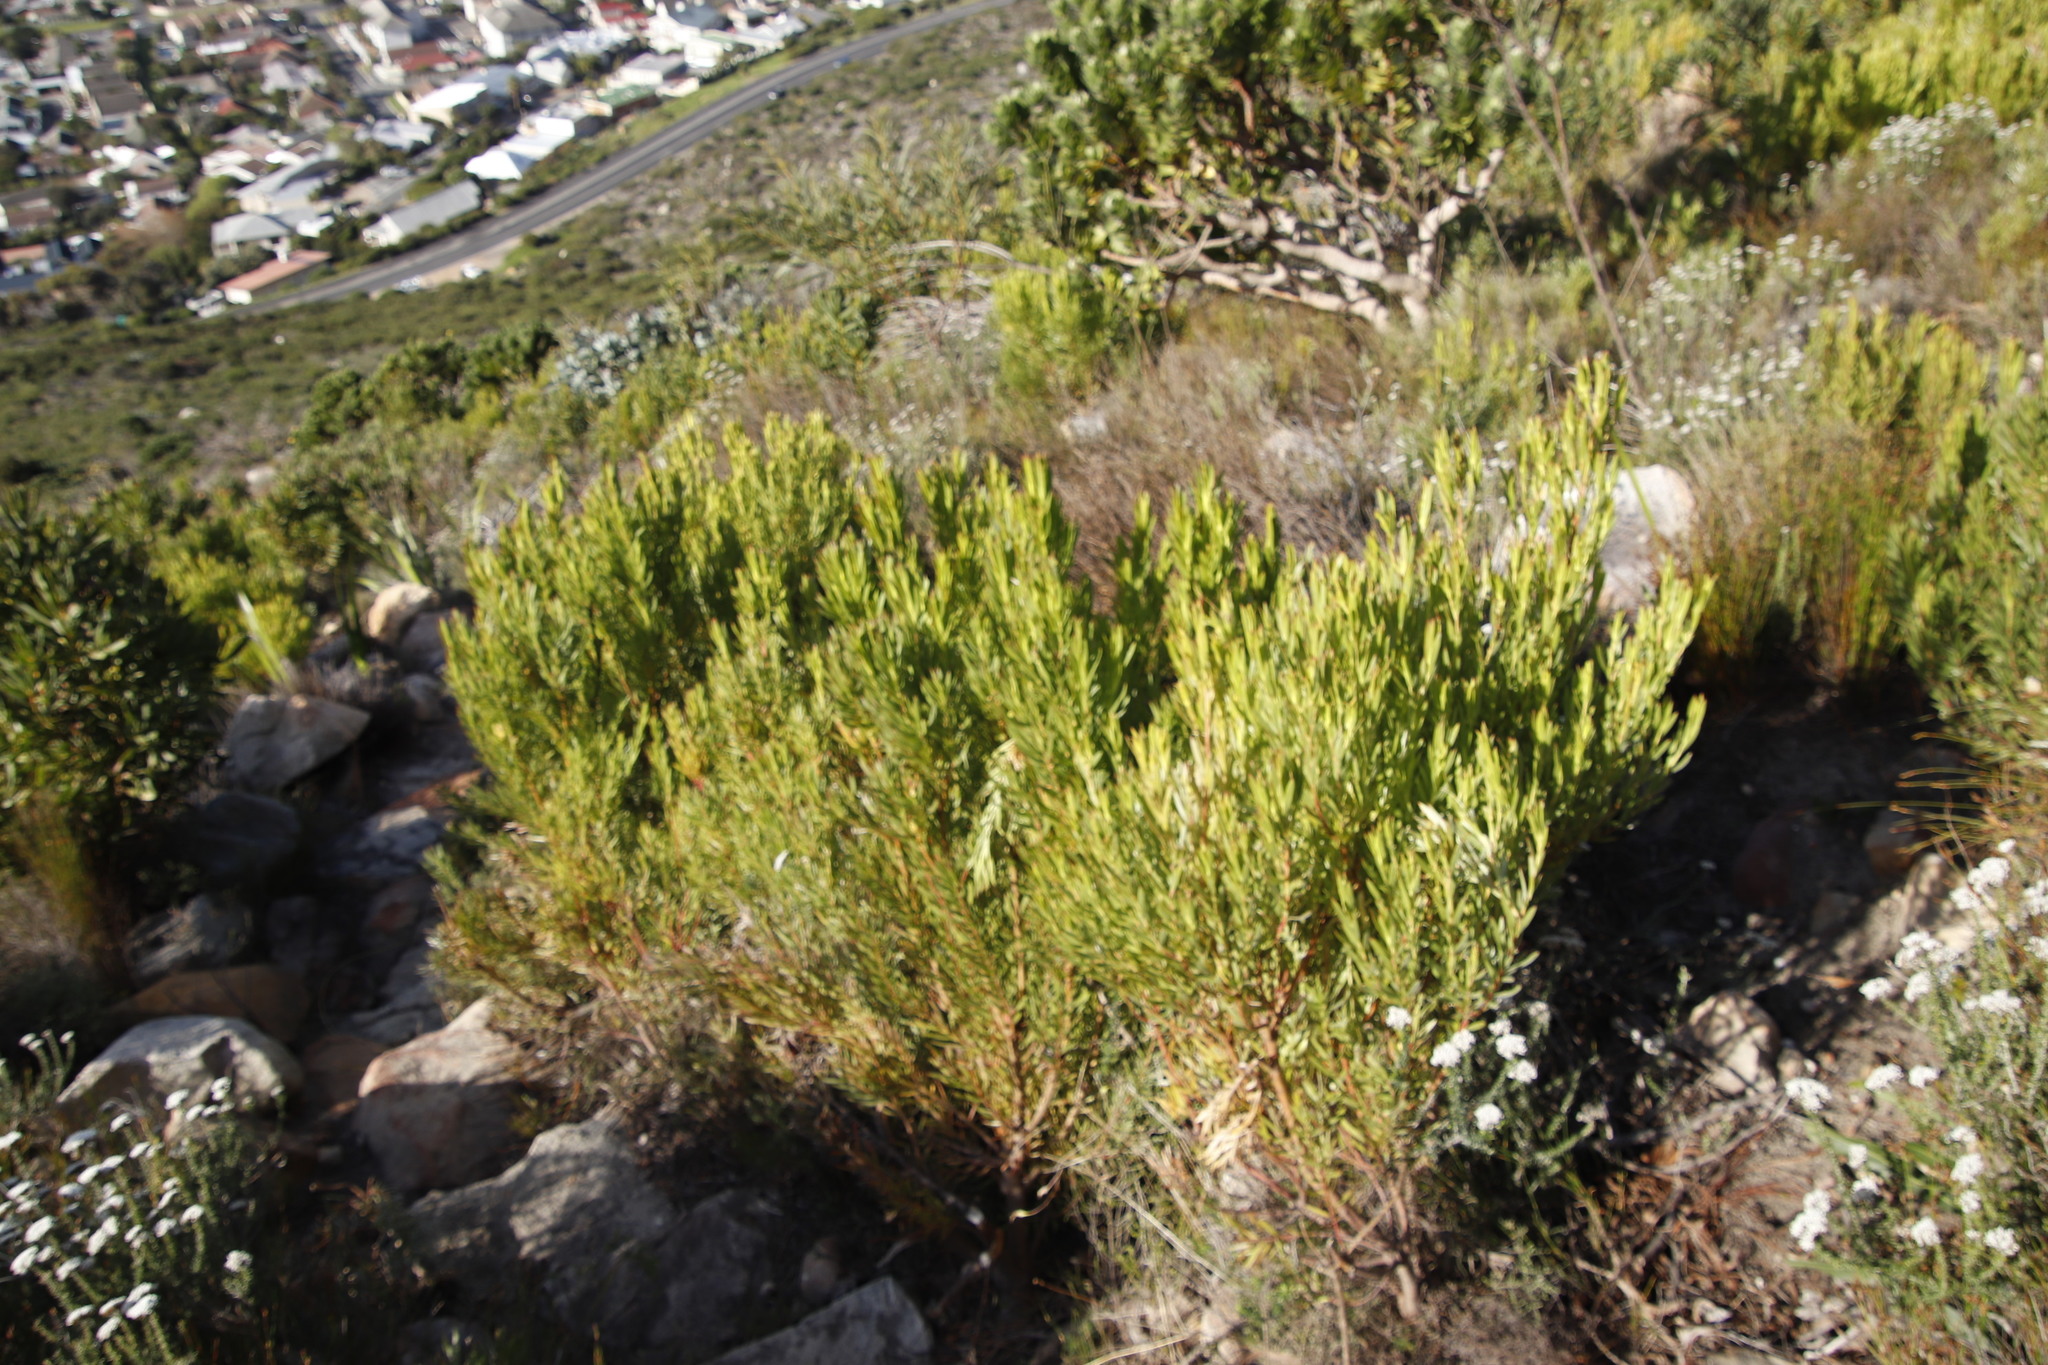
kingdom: Plantae
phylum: Tracheophyta
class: Magnoliopsida
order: Proteales
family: Proteaceae
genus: Leucadendron
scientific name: Leucadendron xanthoconus
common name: Sickle-leaf conebush
